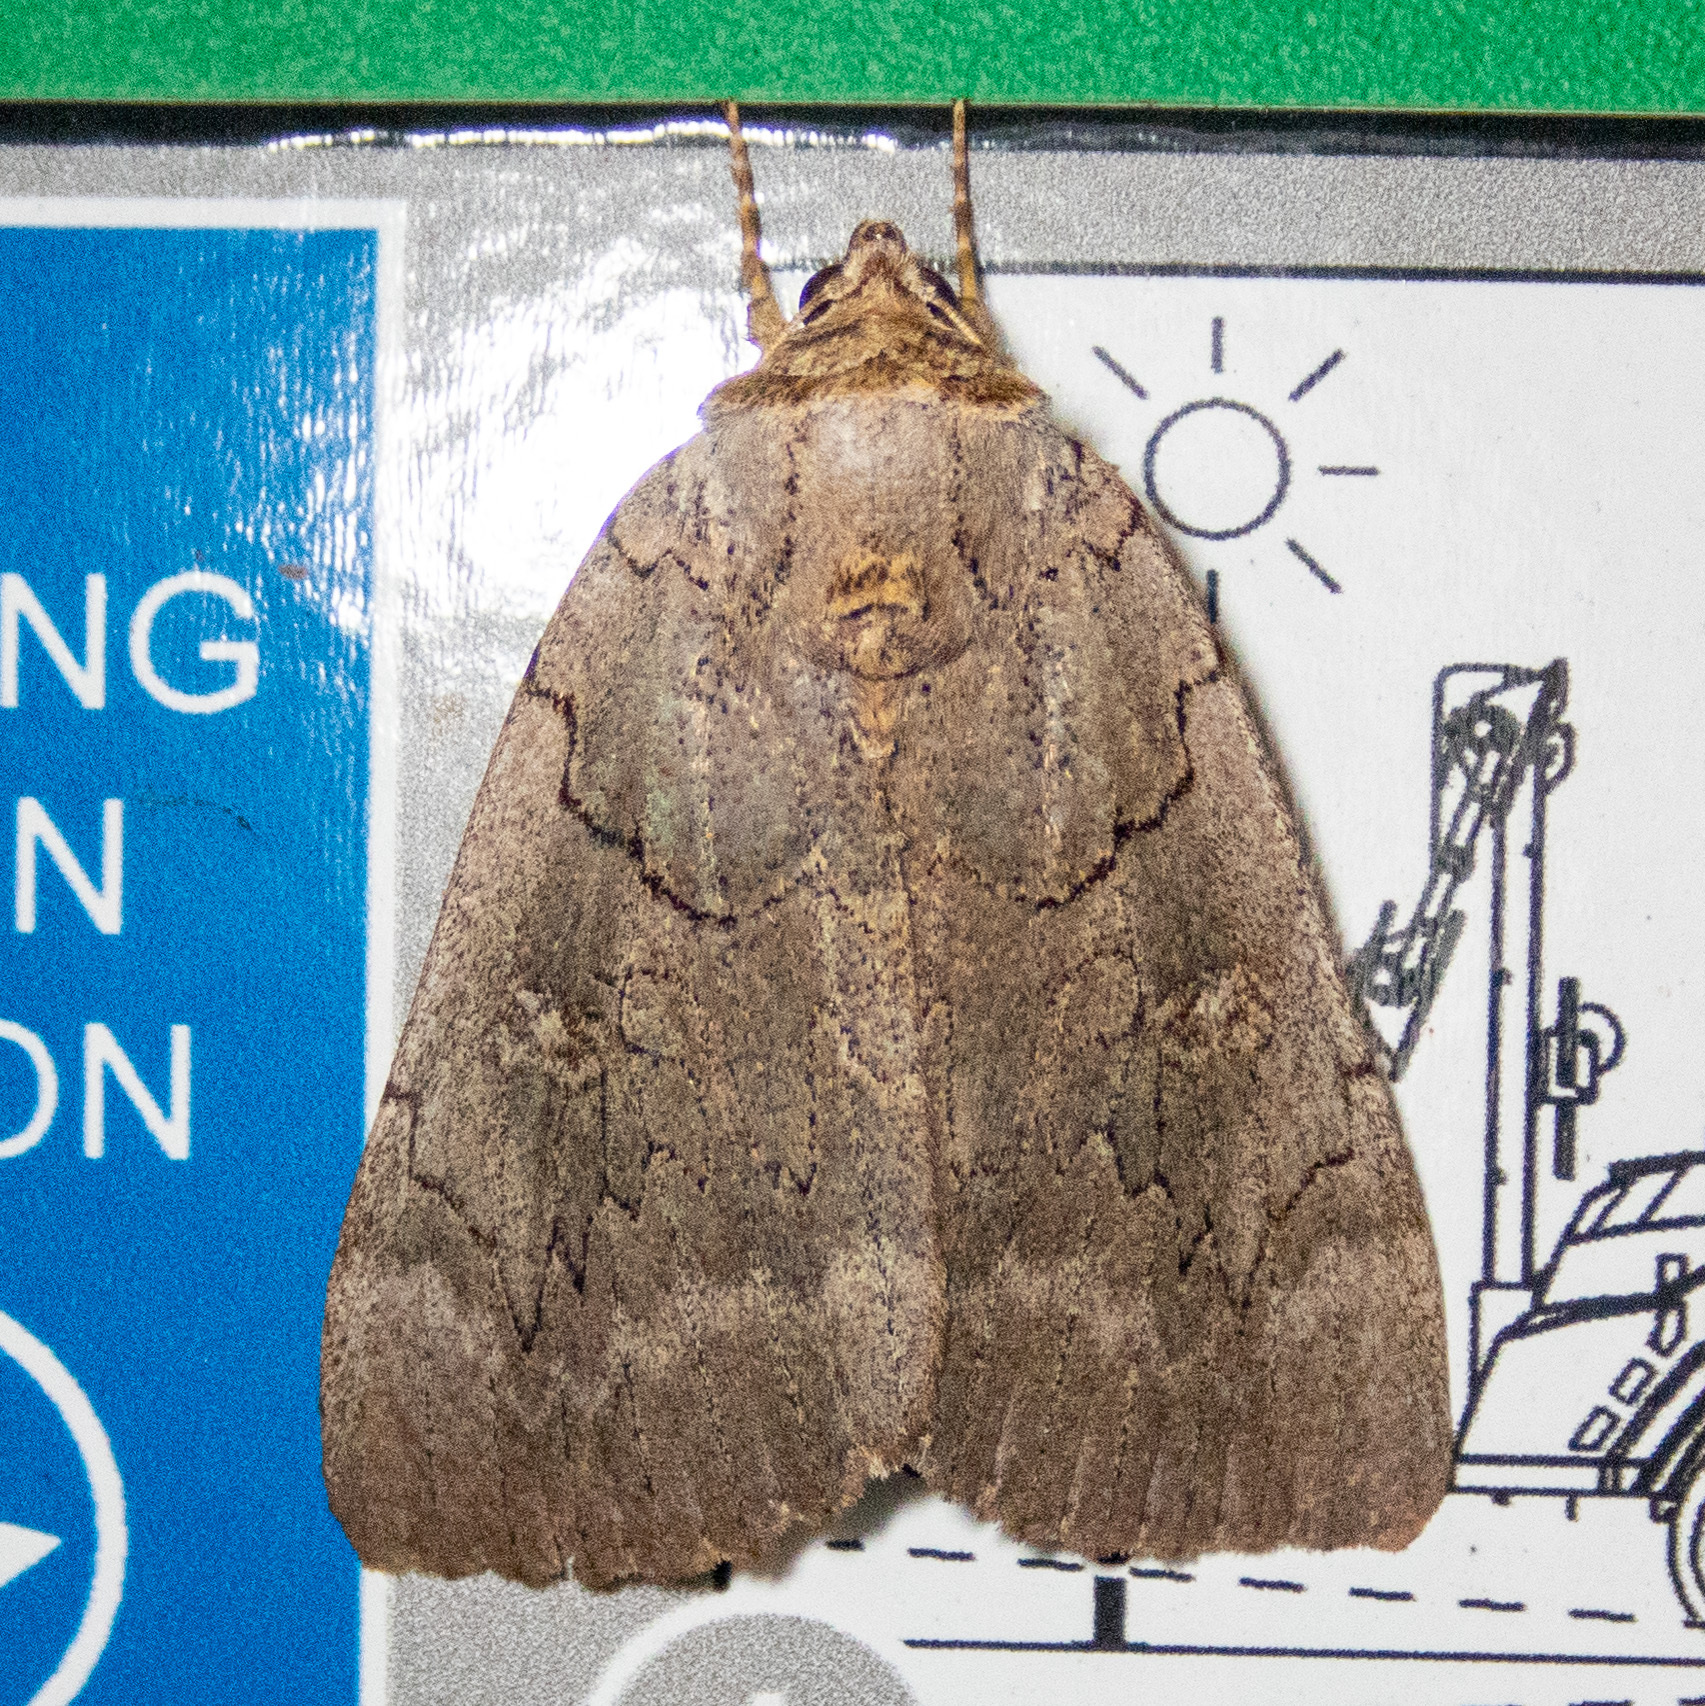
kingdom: Animalia
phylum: Arthropoda
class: Insecta
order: Lepidoptera
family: Erebidae
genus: Catocala
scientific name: Catocala illecta
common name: Magdalen underwing
